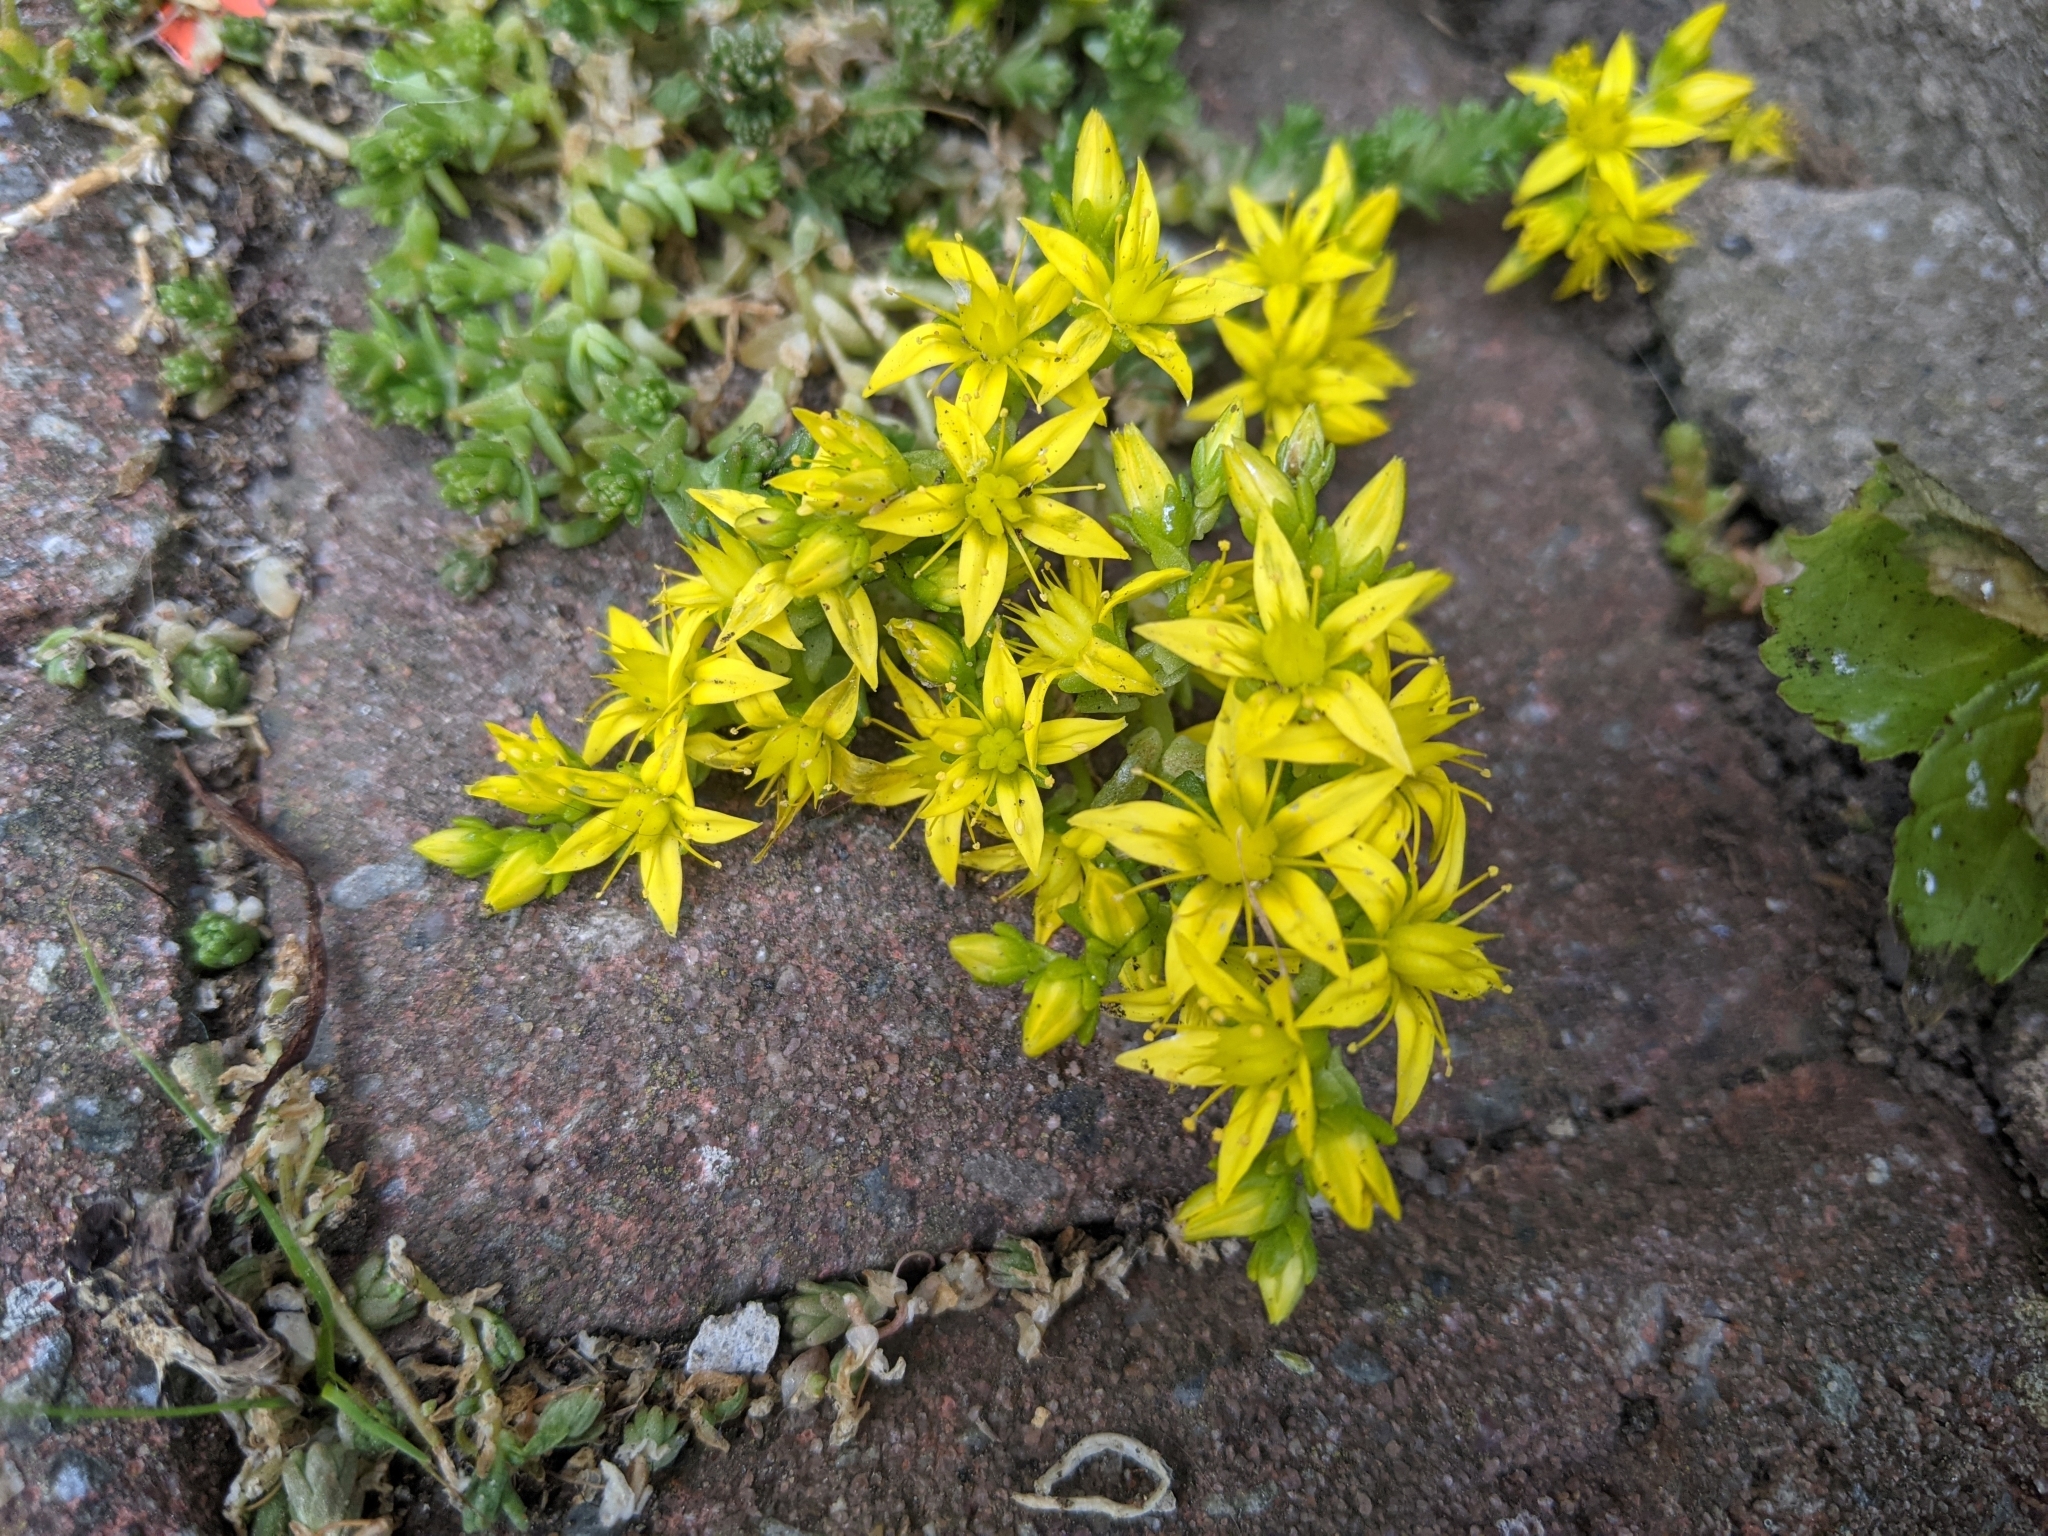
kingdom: Plantae
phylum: Tracheophyta
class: Magnoliopsida
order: Saxifragales
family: Crassulaceae
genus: Sedum
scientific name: Sedum acre
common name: Biting stonecrop
